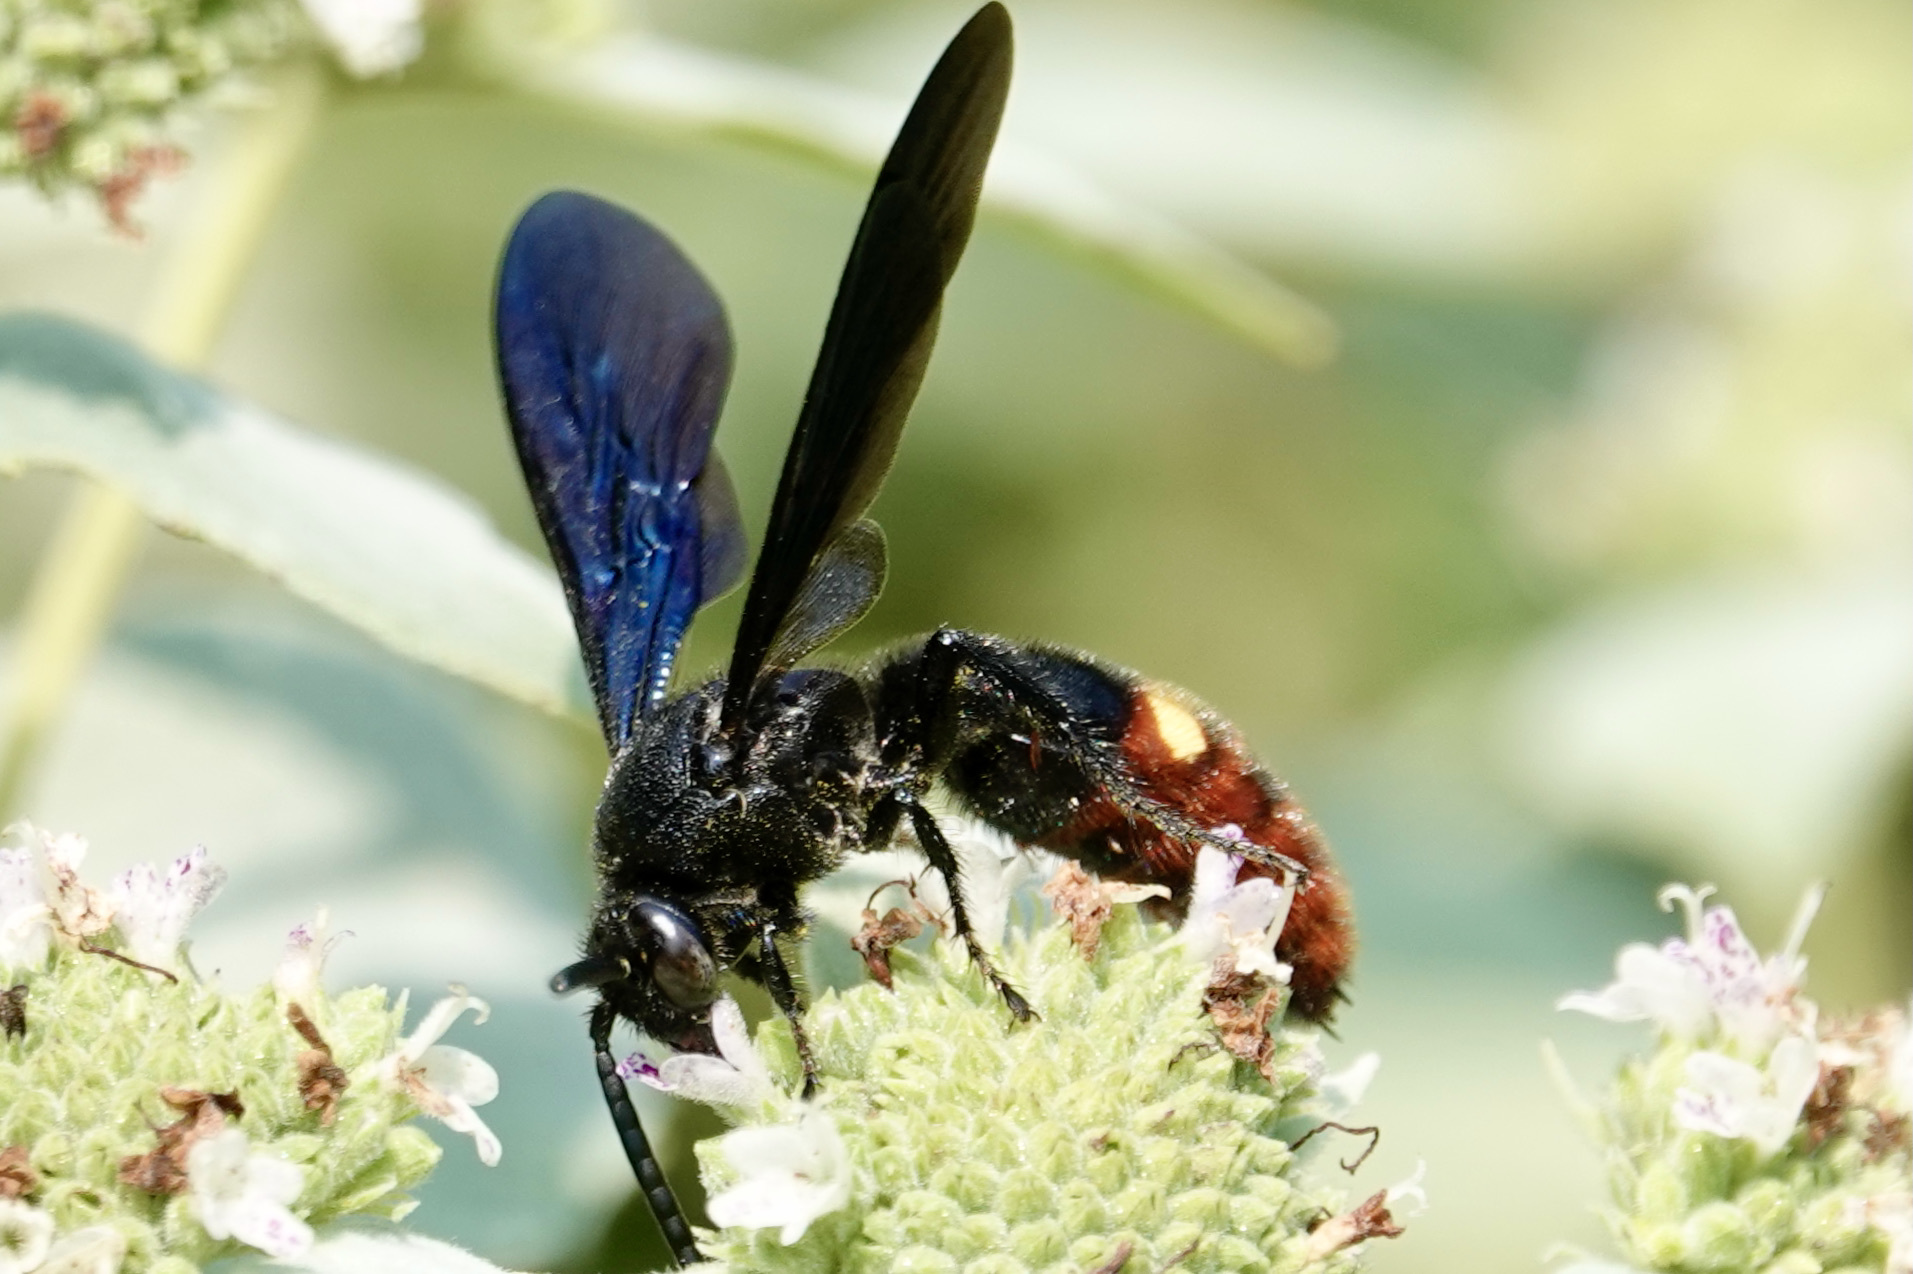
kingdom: Animalia
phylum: Arthropoda
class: Insecta
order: Hymenoptera
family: Scoliidae
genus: Scolia
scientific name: Scolia dubia
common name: Blue-winged scoliid wasp
